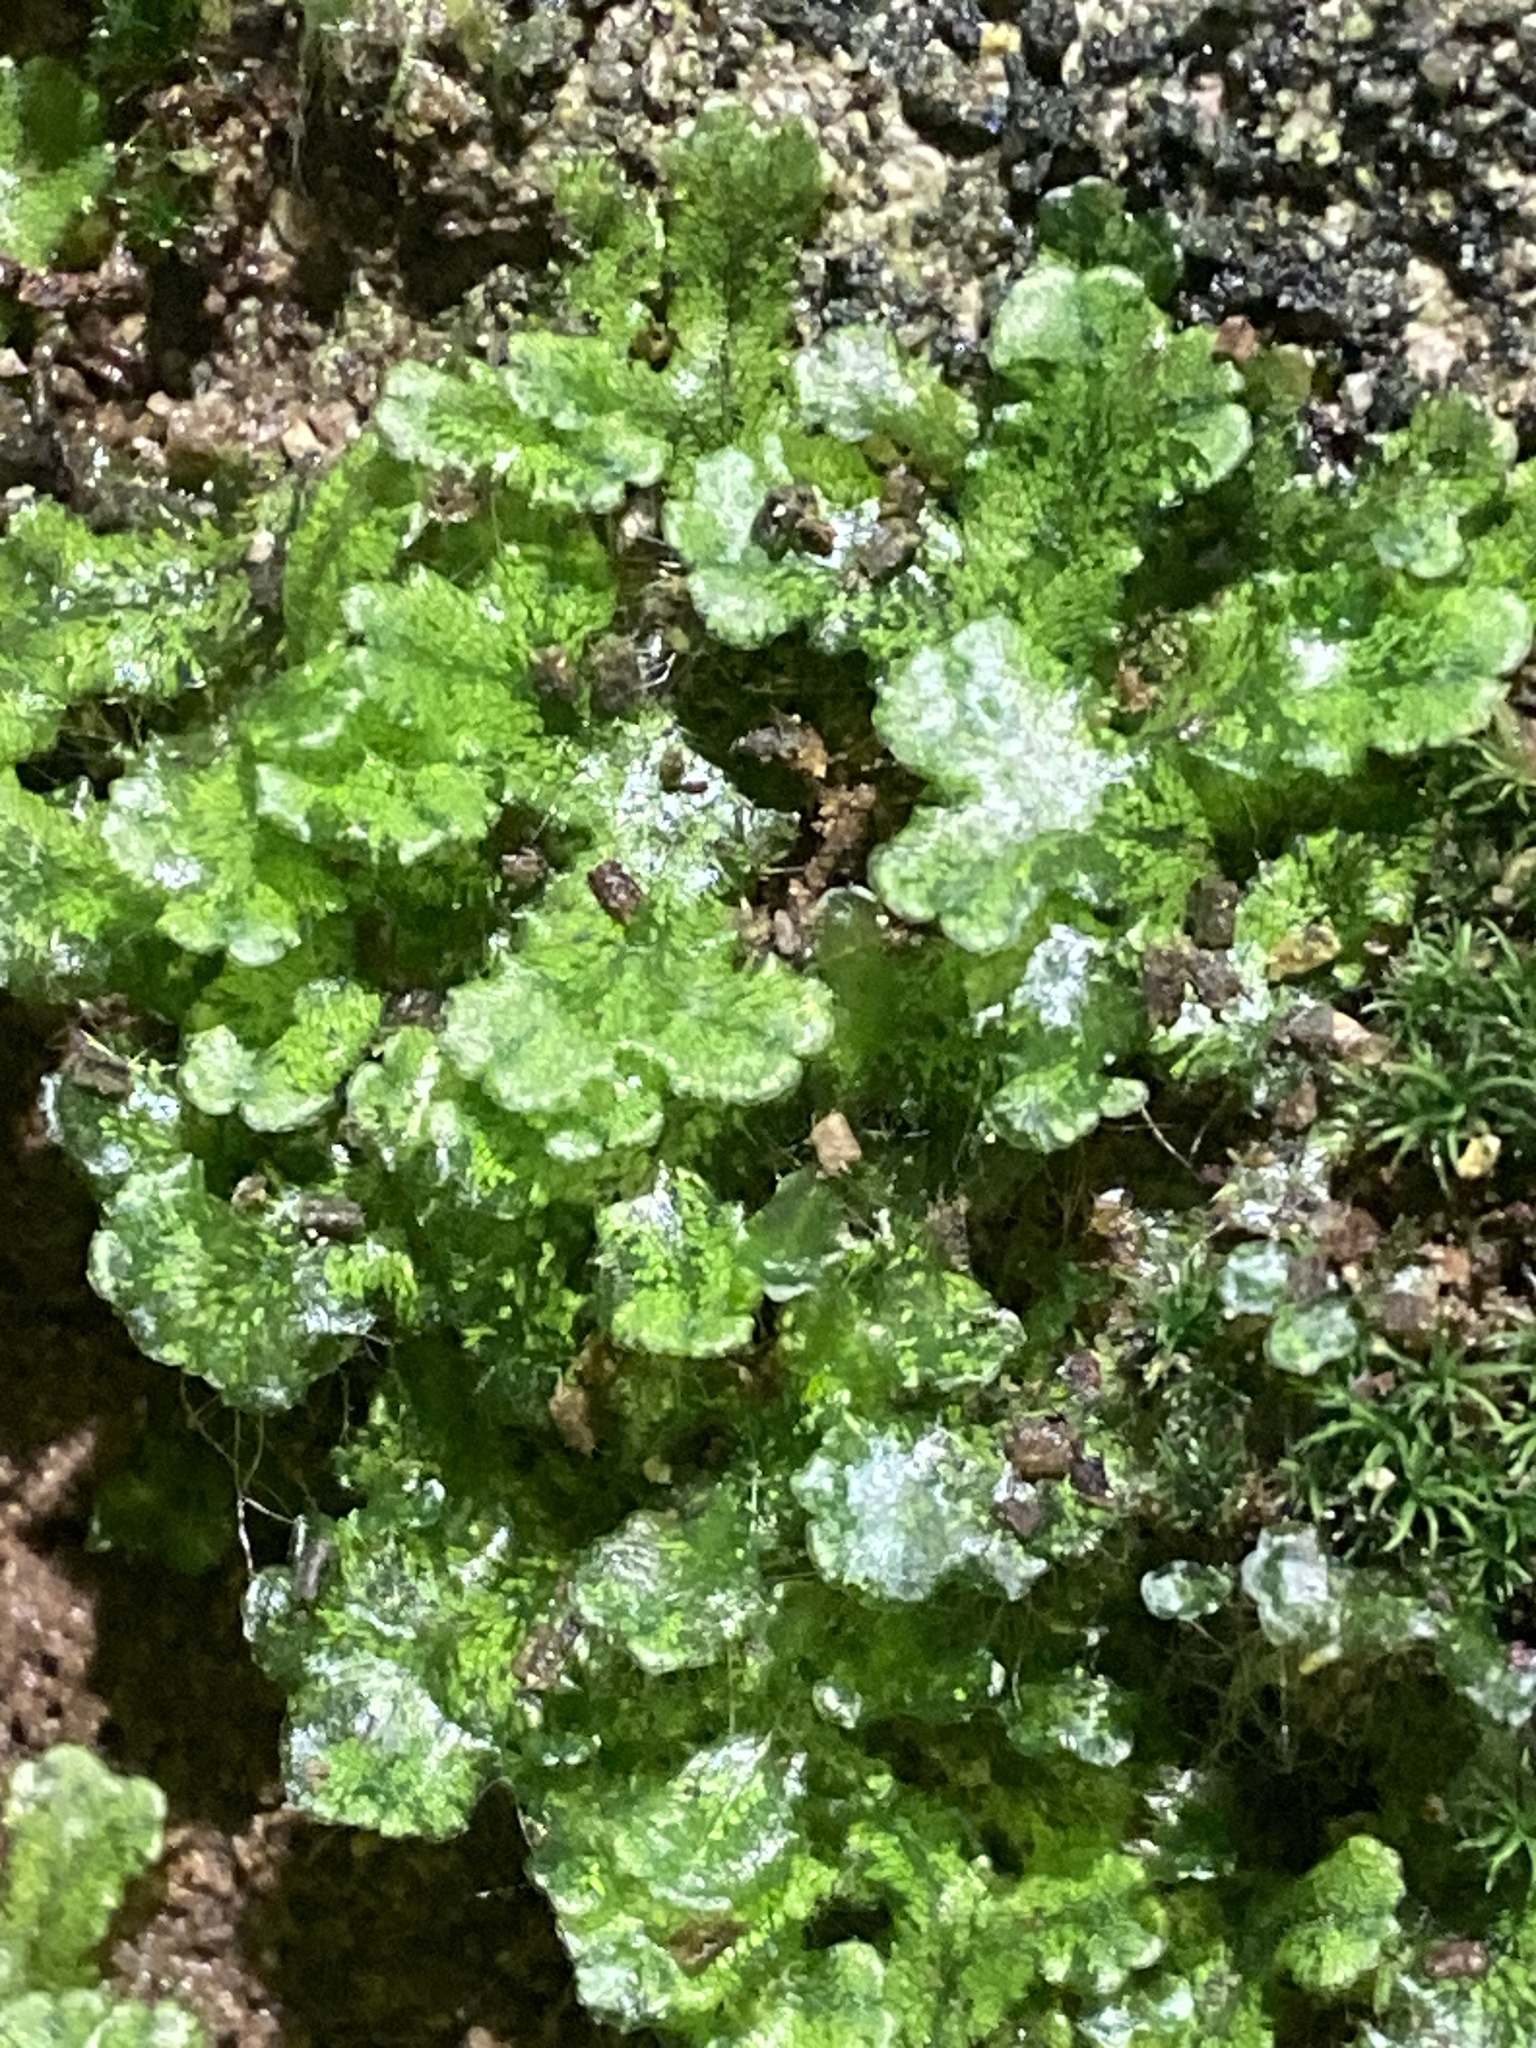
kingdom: Plantae
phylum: Marchantiophyta
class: Marchantiopsida
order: Marchantiales
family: Marchantiaceae
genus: Marchantia
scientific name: Marchantia polymorpha
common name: Common liverwort
